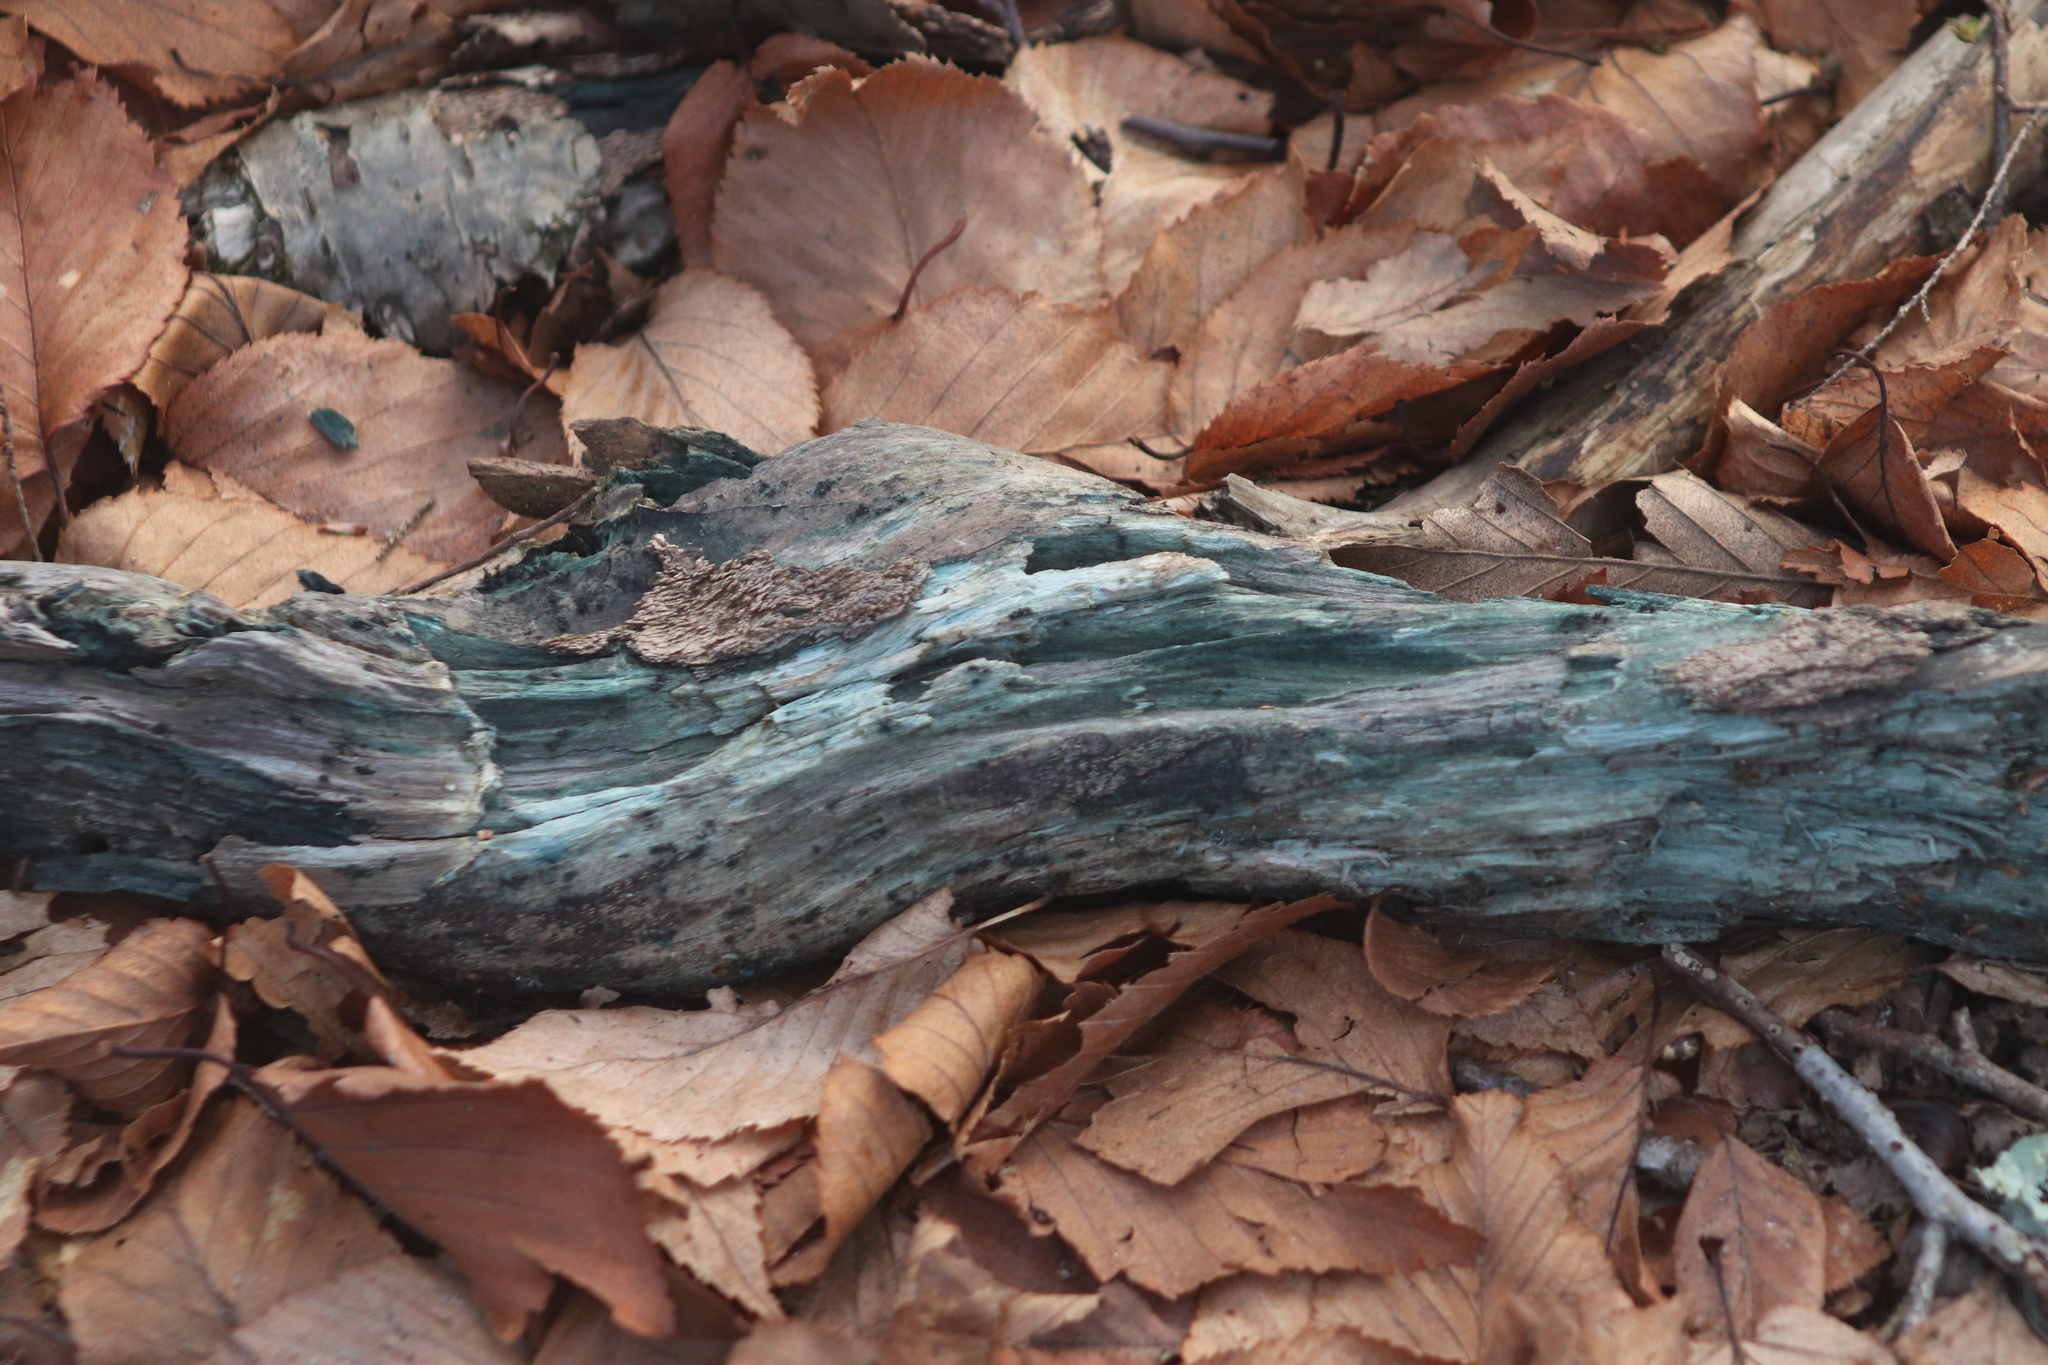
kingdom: Fungi
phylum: Ascomycota
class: Leotiomycetes
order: Helotiales
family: Chlorociboriaceae
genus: Chlorociboria
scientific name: Chlorociboria
